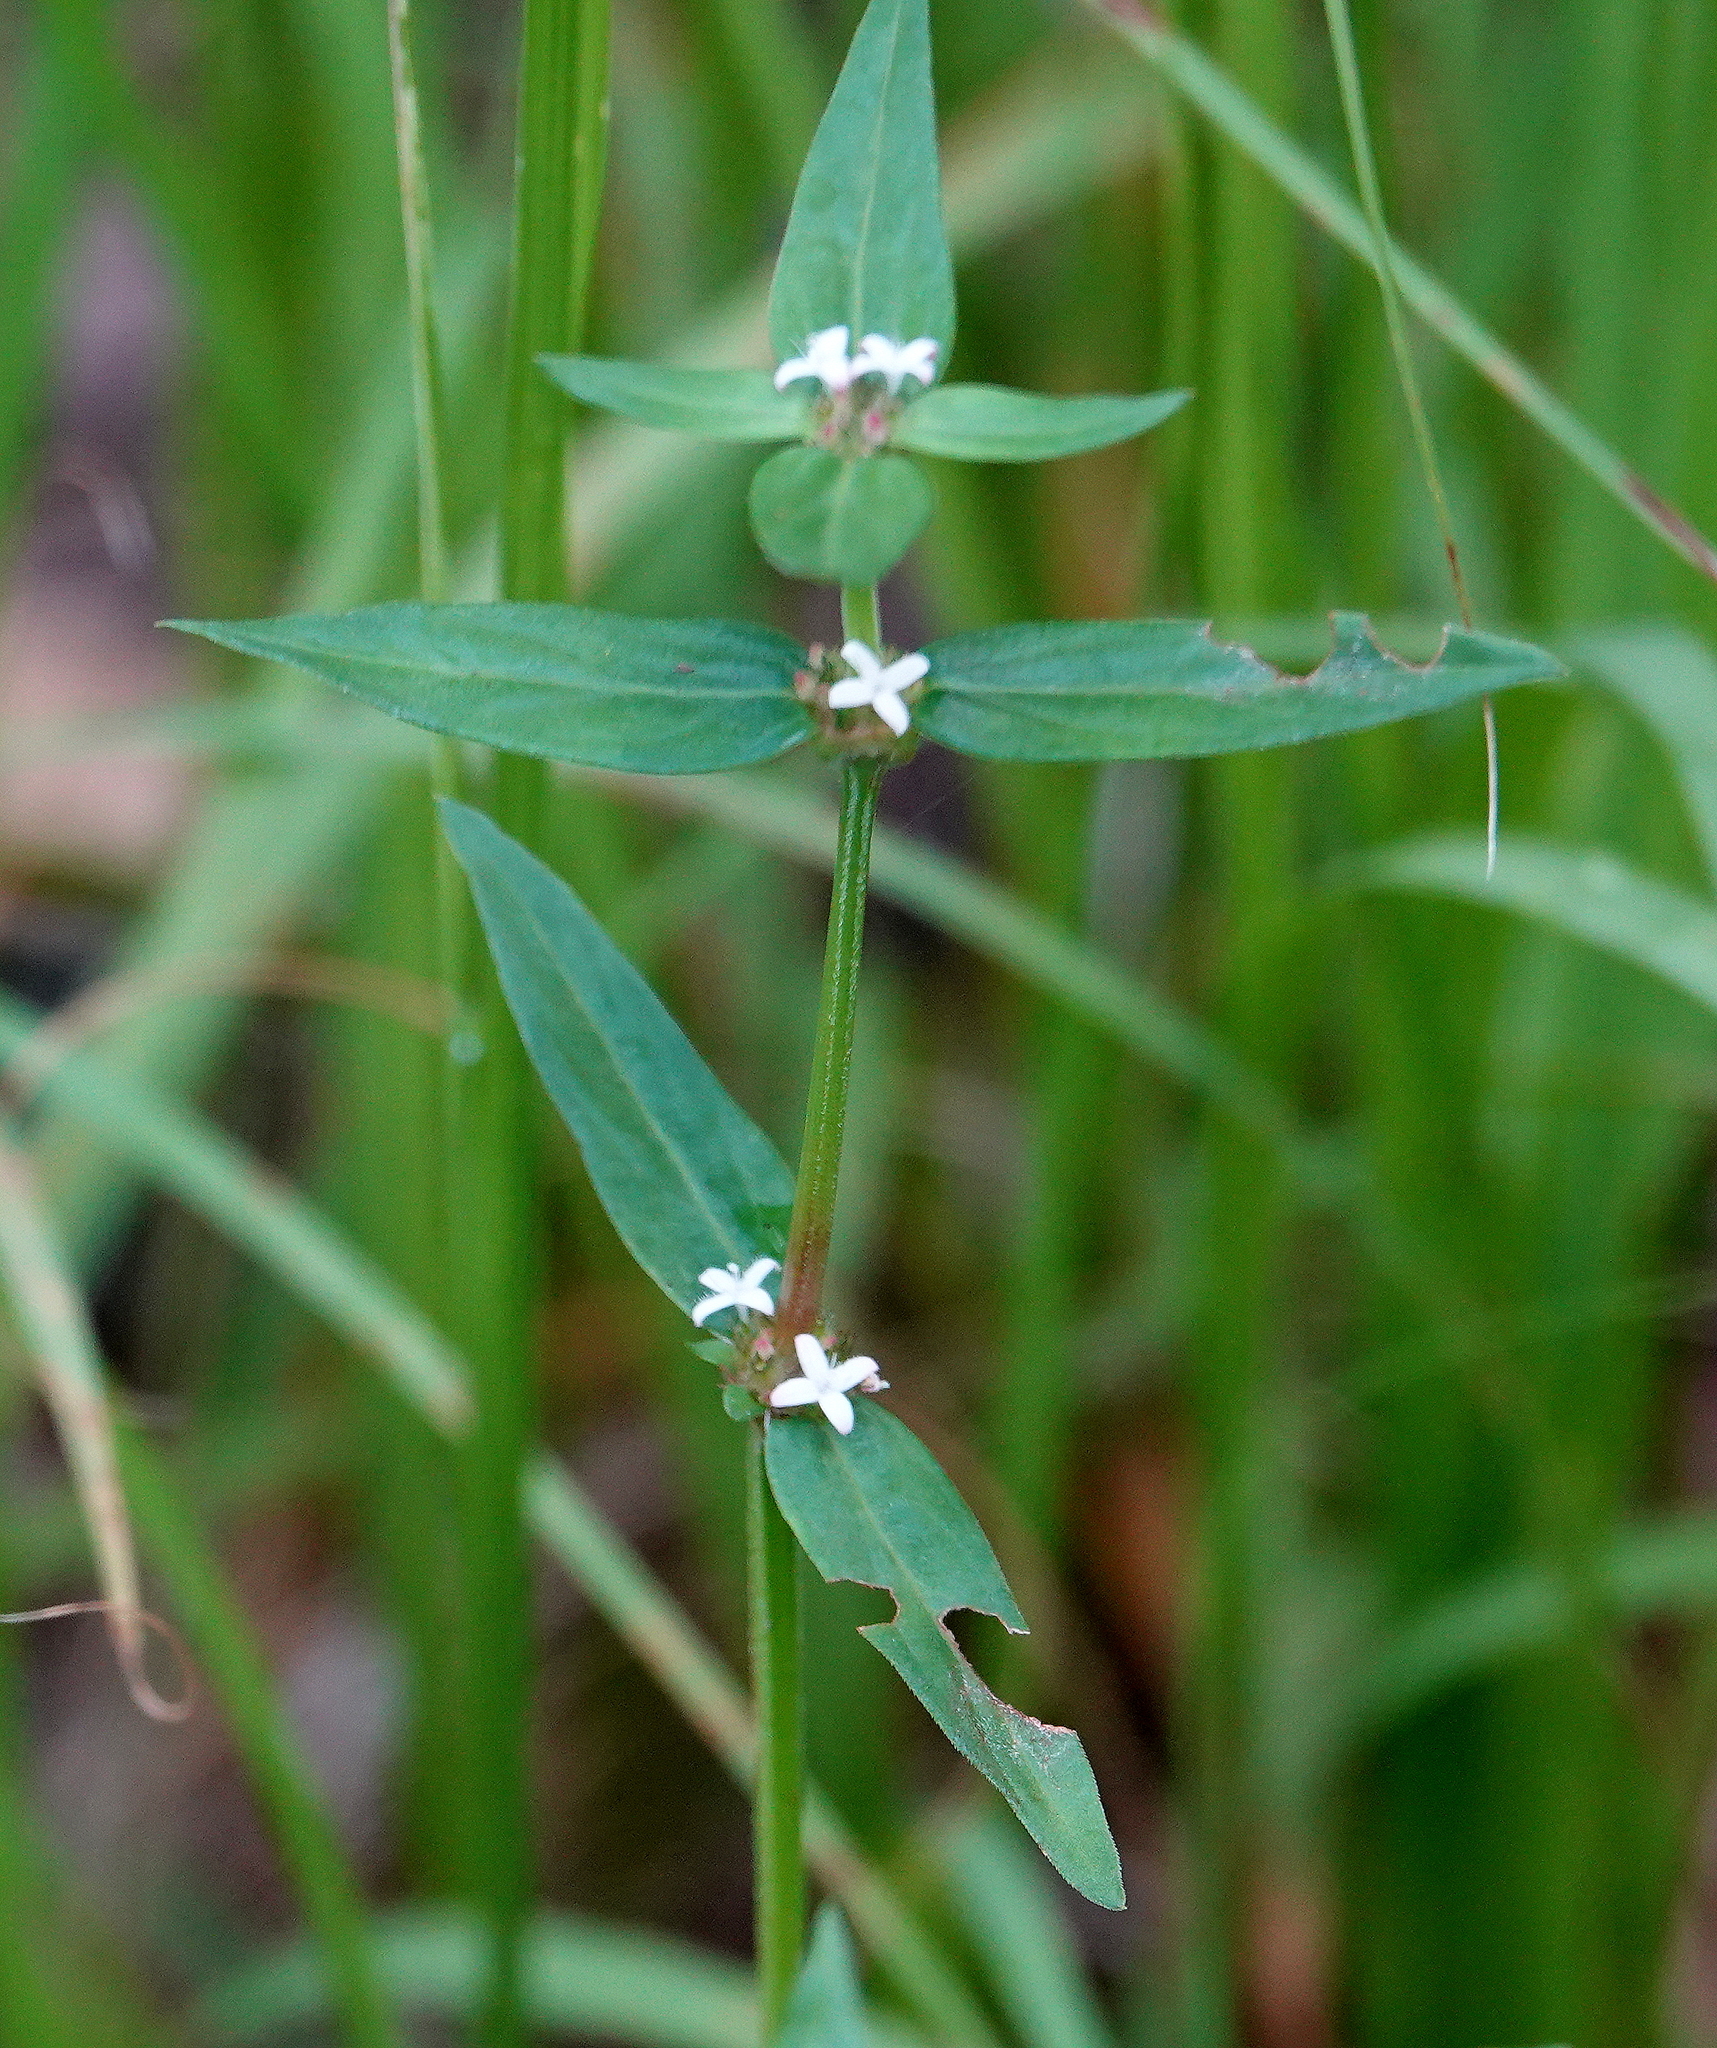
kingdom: Plantae
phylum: Tracheophyta
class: Magnoliopsida
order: Gentianales
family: Rubiaceae
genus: Spermacoce
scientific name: Spermacoce remota
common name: Woodland false buttonweed
